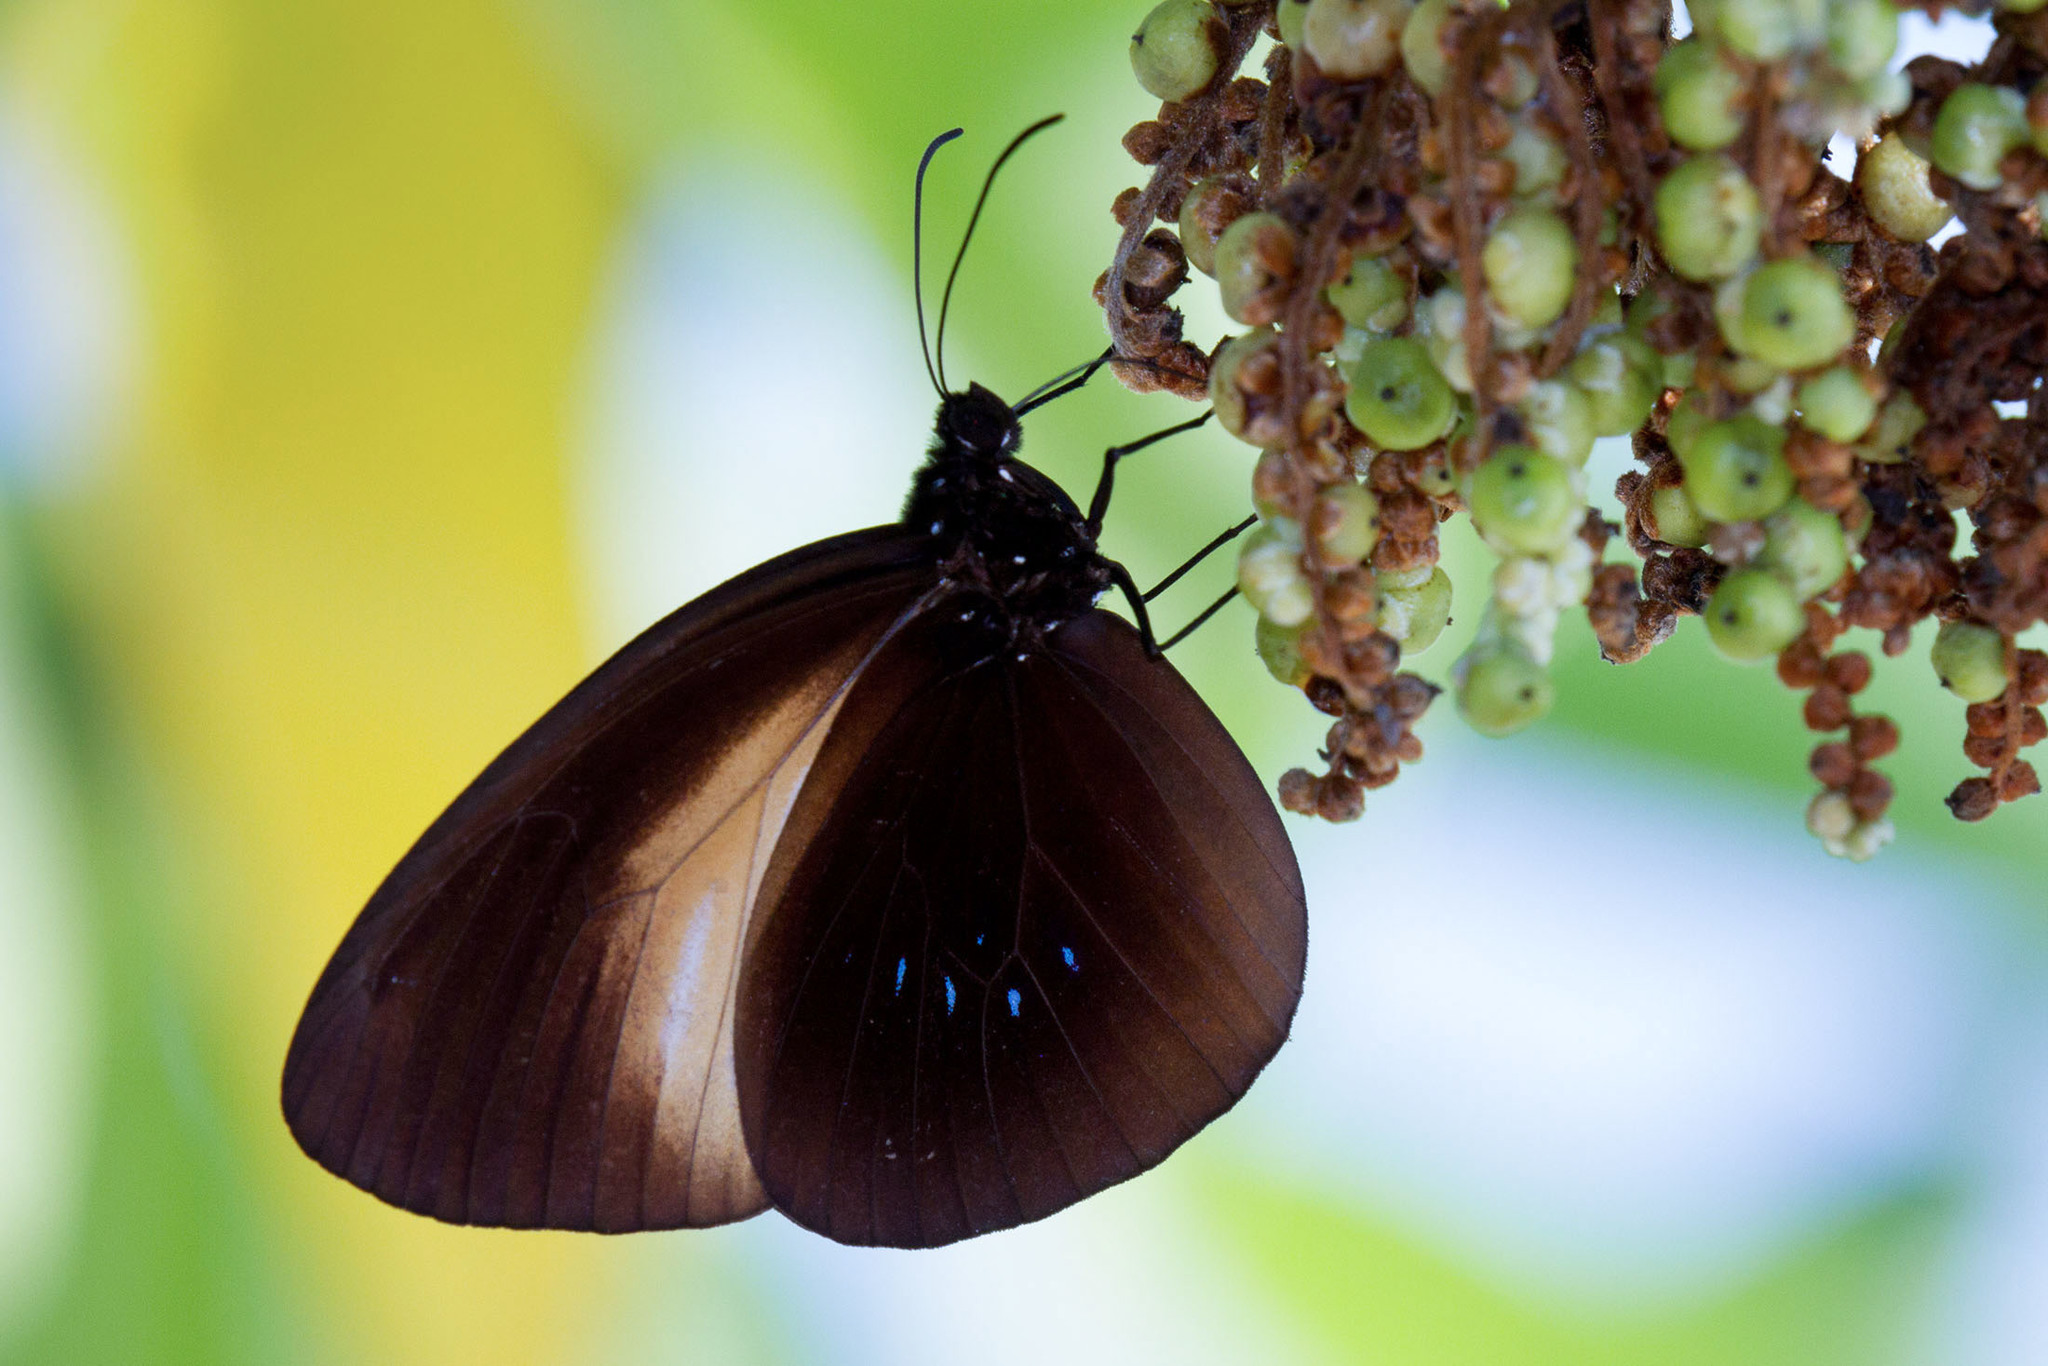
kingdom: Animalia
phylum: Arthropoda
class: Insecta
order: Lepidoptera
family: Nymphalidae
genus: Euploea
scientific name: Euploea wallacei
